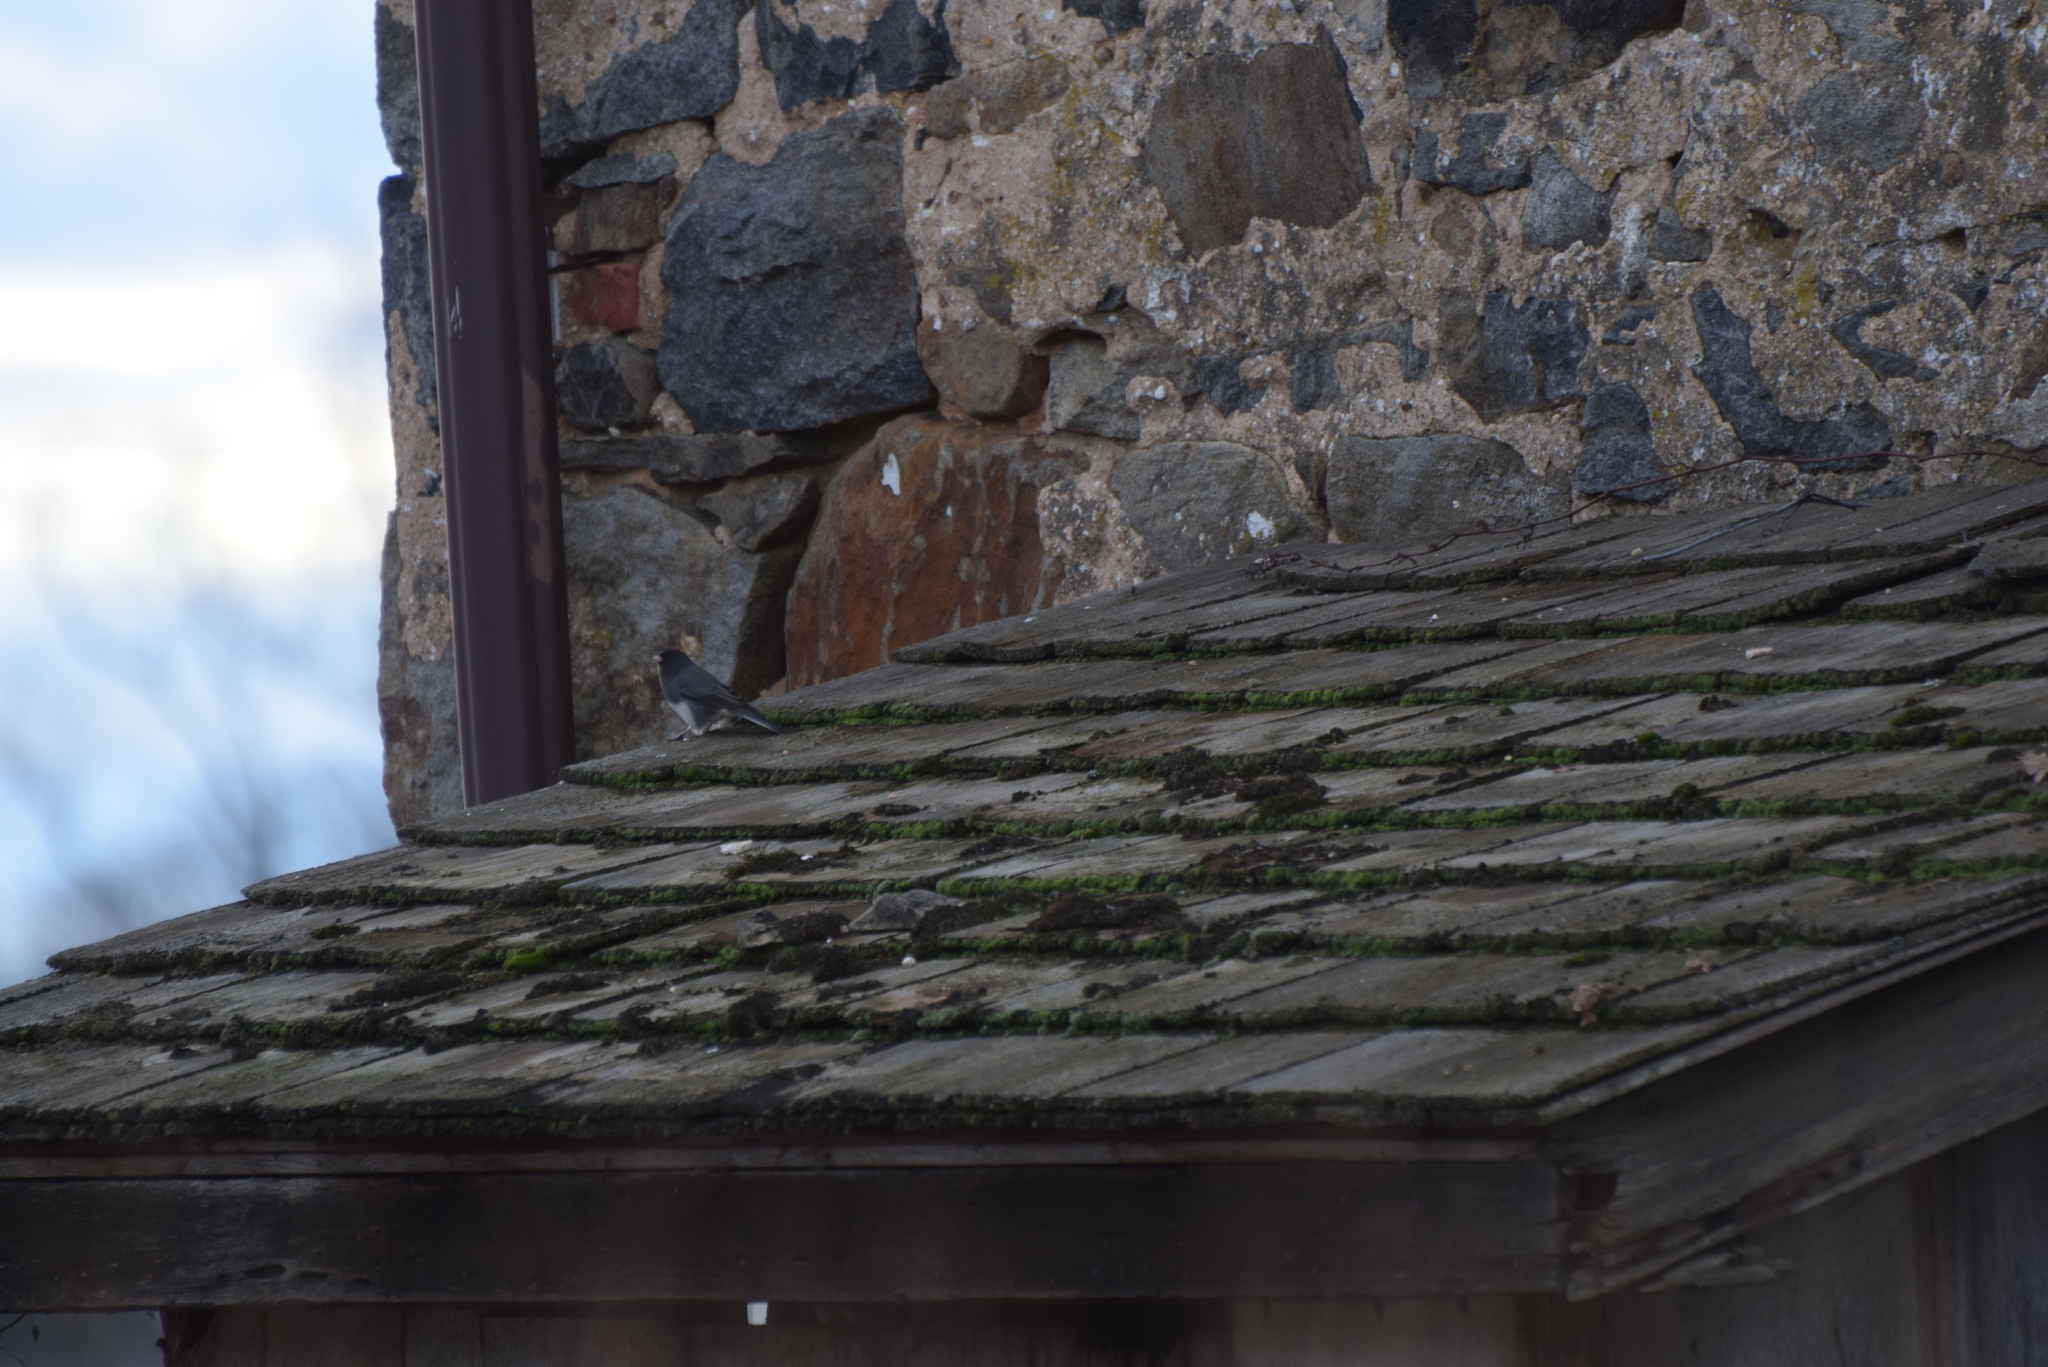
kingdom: Animalia
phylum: Chordata
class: Aves
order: Passeriformes
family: Passerellidae
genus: Junco
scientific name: Junco hyemalis
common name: Dark-eyed junco
